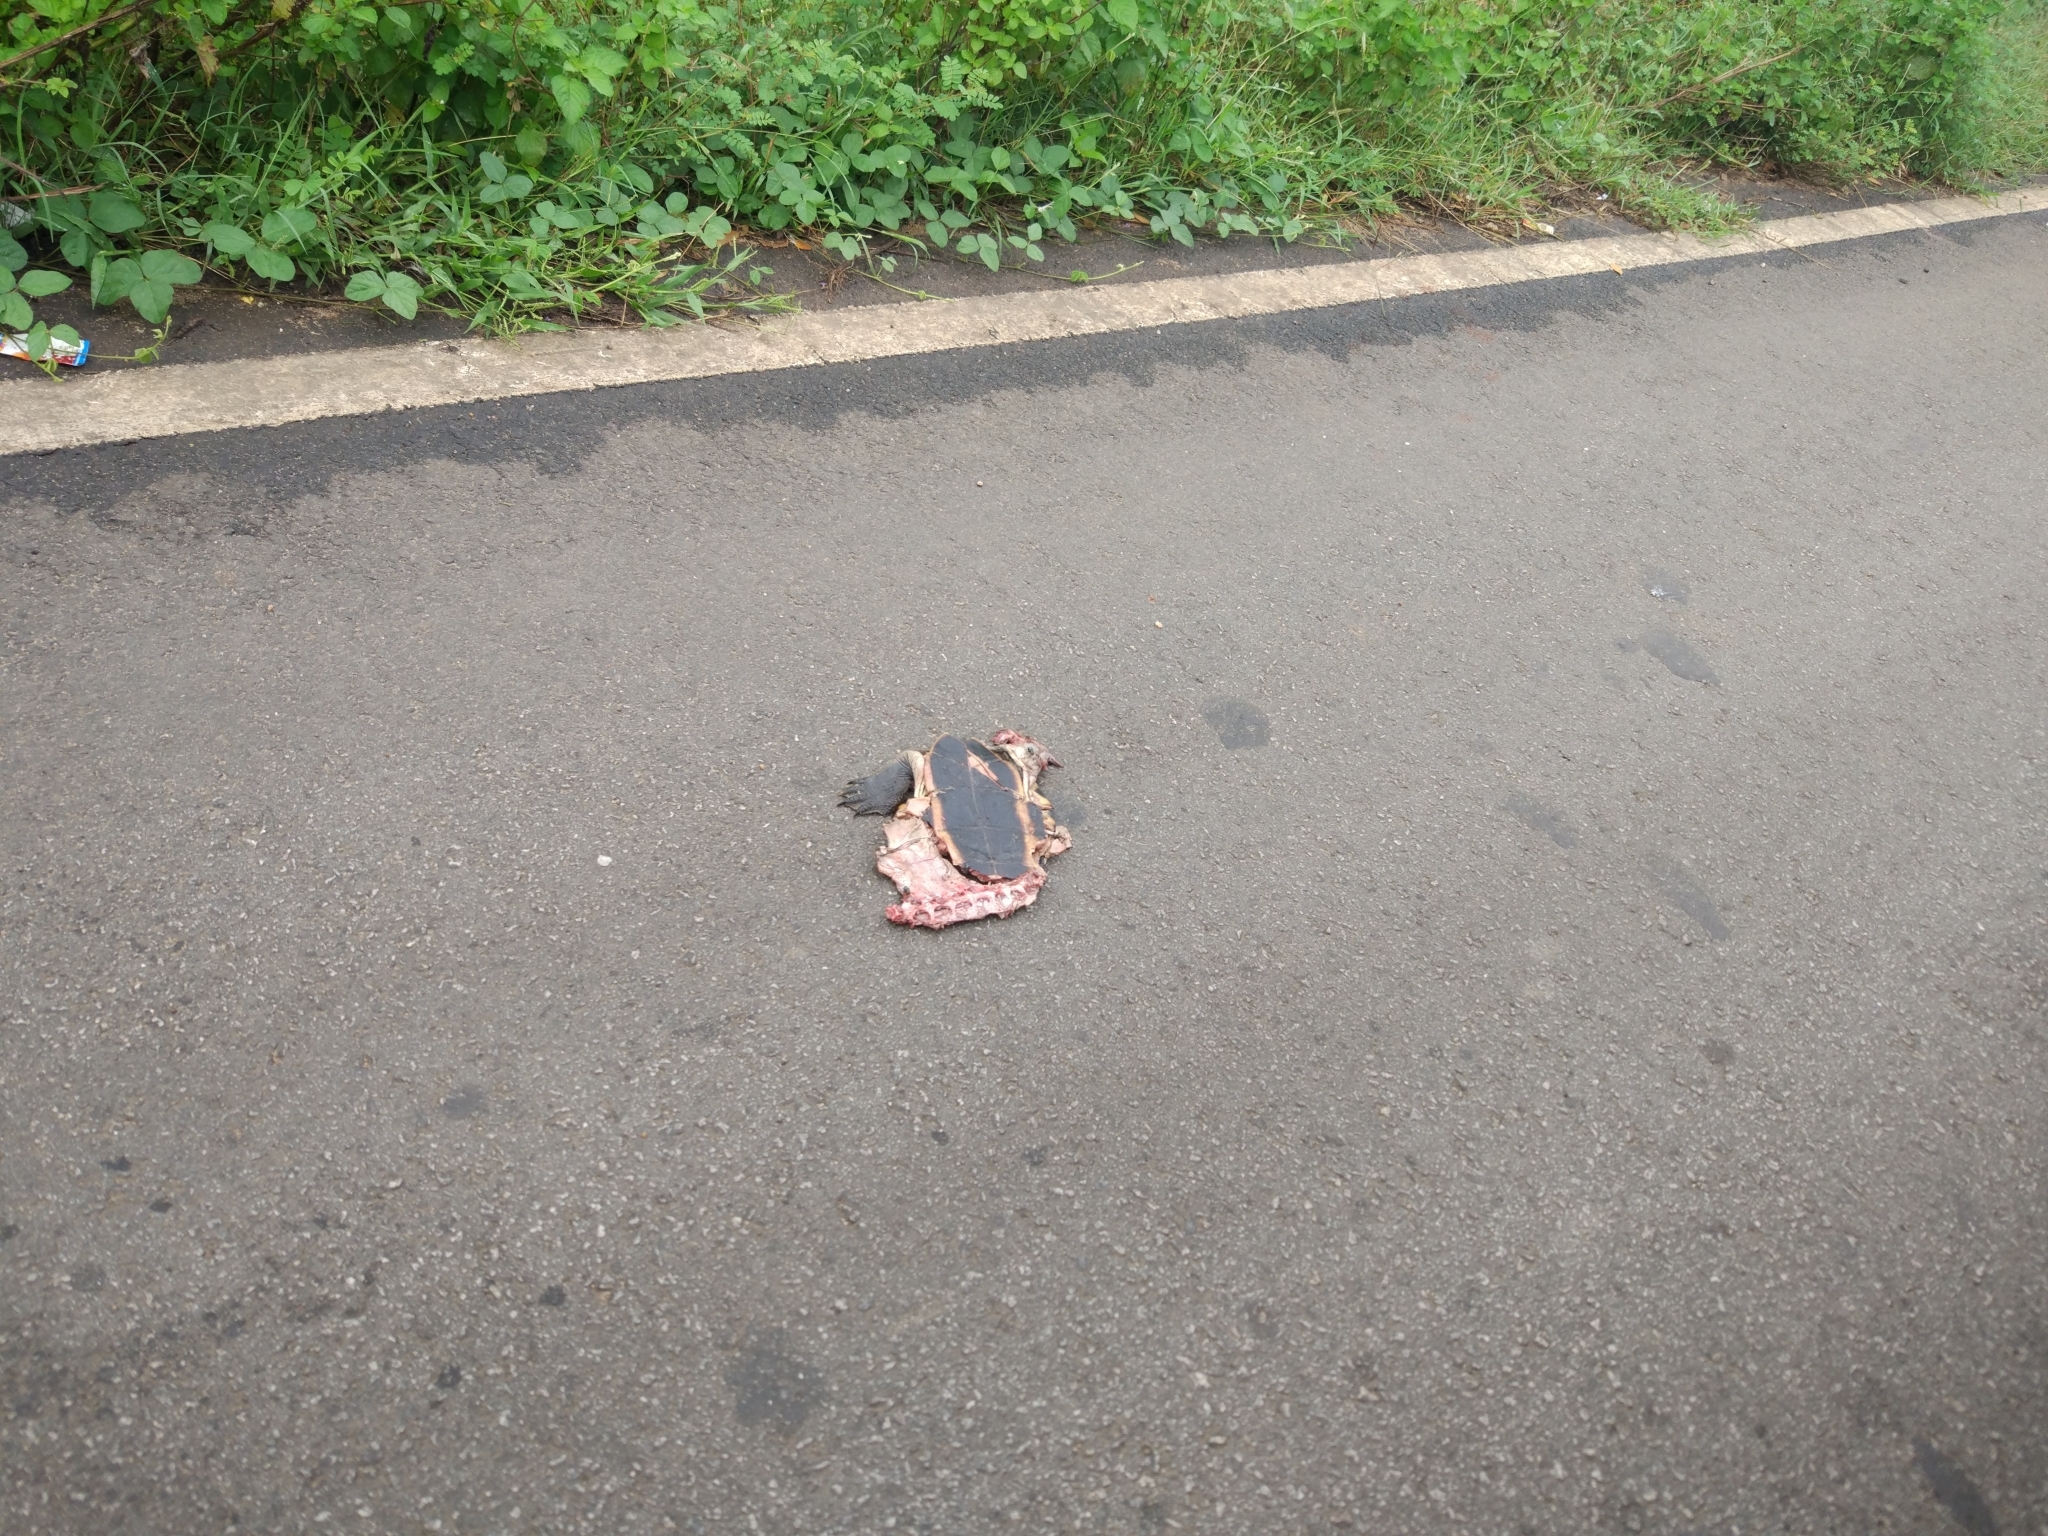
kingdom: Animalia
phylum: Chordata
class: Testudines
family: Geoemydidae
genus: Melanochelys
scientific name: Melanochelys trijuga
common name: Indian black turtle
